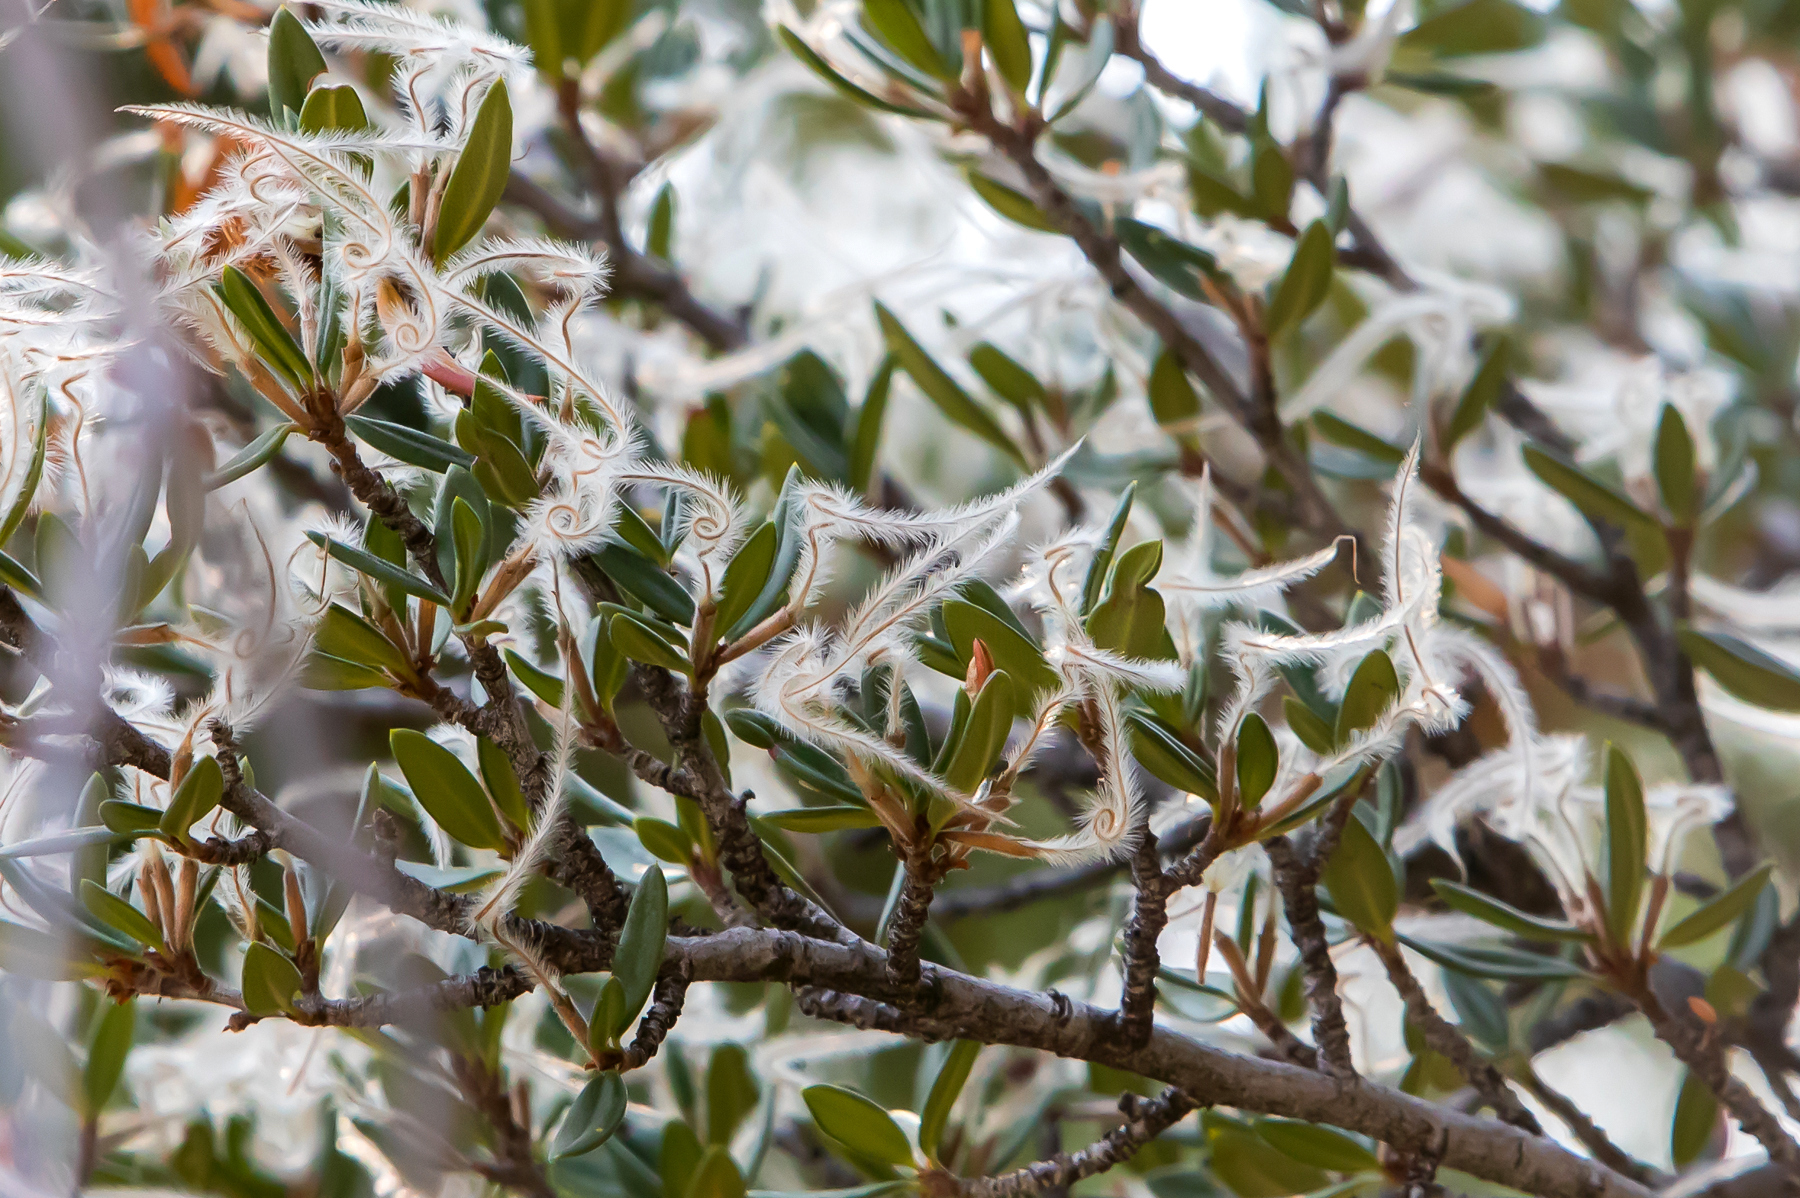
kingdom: Plantae
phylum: Tracheophyta
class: Magnoliopsida
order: Rosales
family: Rosaceae
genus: Cercocarpus
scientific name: Cercocarpus ledifolius
